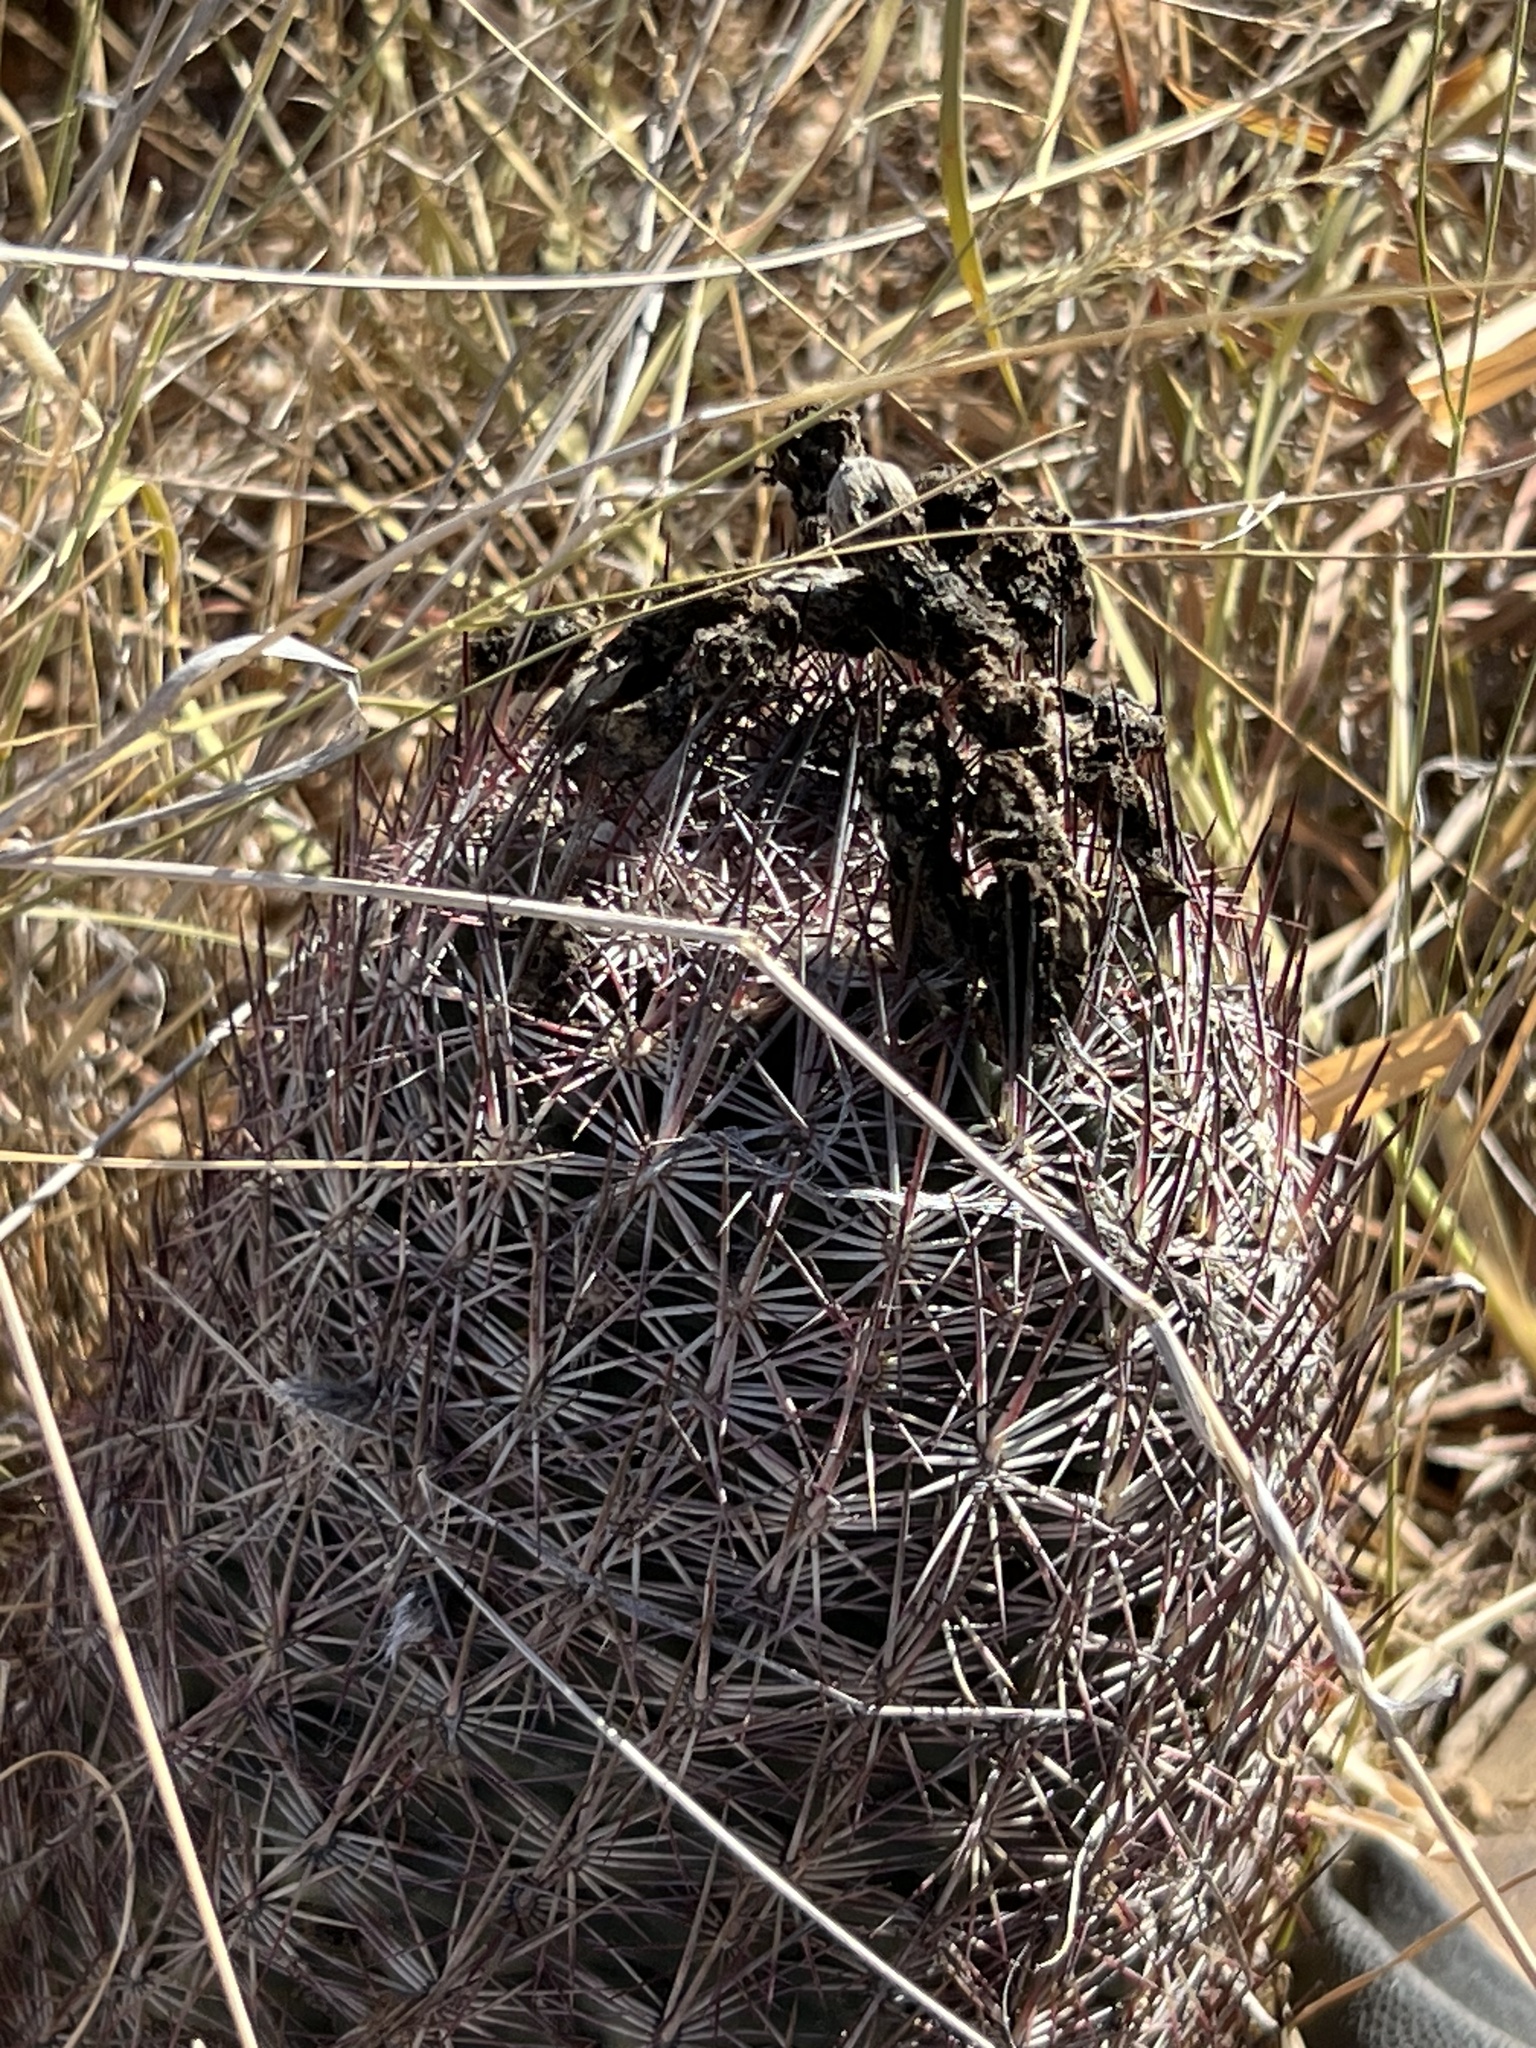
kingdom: Plantae
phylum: Tracheophyta
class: Magnoliopsida
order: Caryophyllales
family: Cactaceae
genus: Sclerocactus
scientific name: Sclerocactus johnsonii
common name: Eight-spine fishhook cactus
